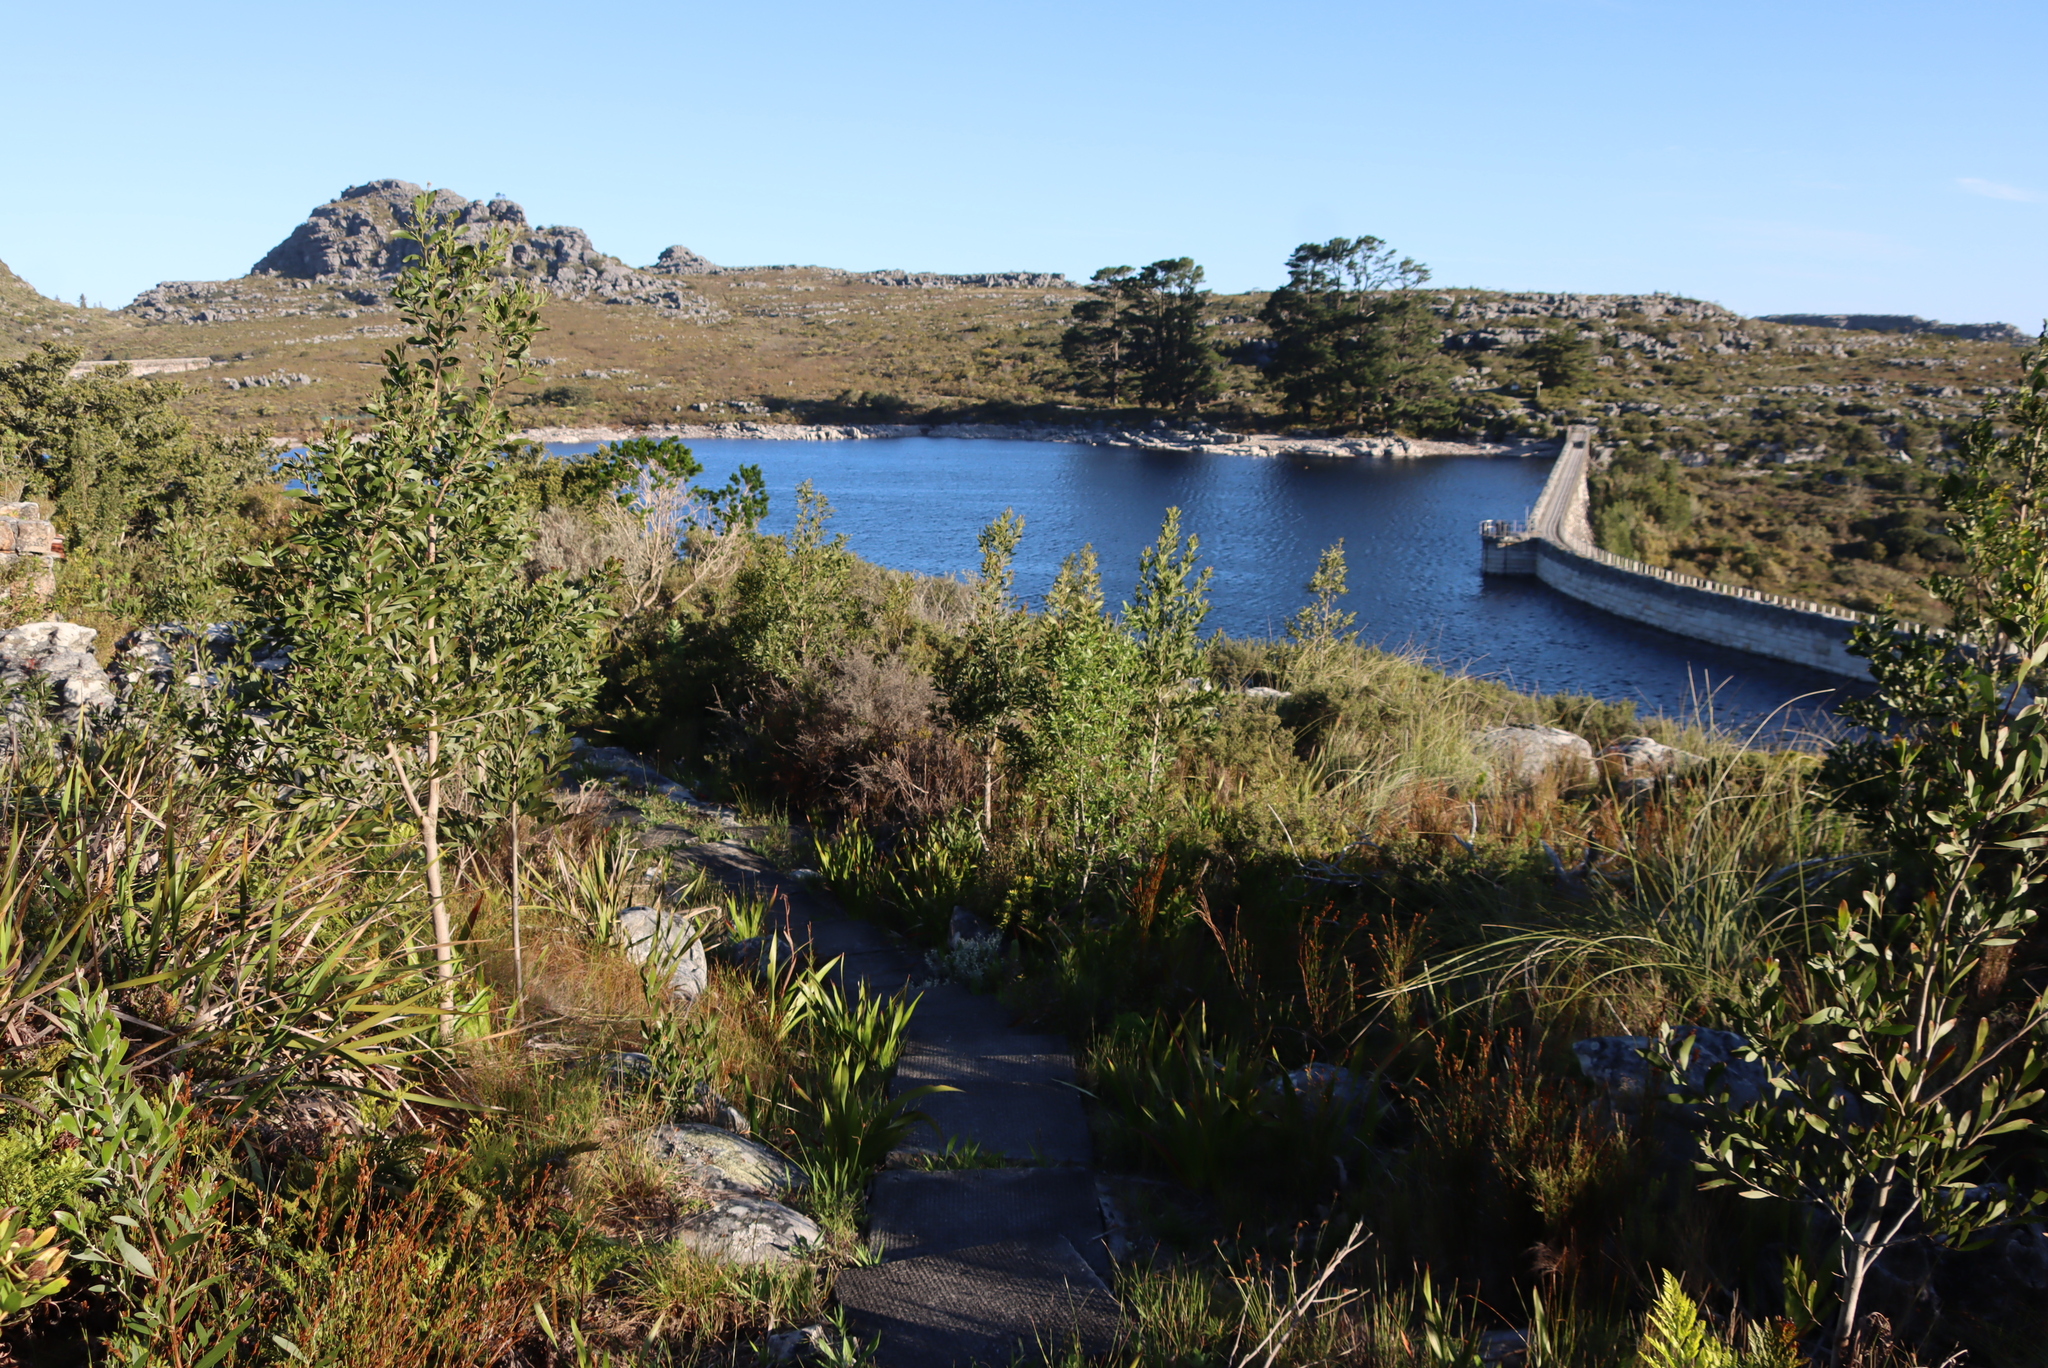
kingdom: Plantae
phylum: Tracheophyta
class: Magnoliopsida
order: Fabales
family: Fabaceae
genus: Acacia
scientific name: Acacia melanoxylon
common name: Blackwood
